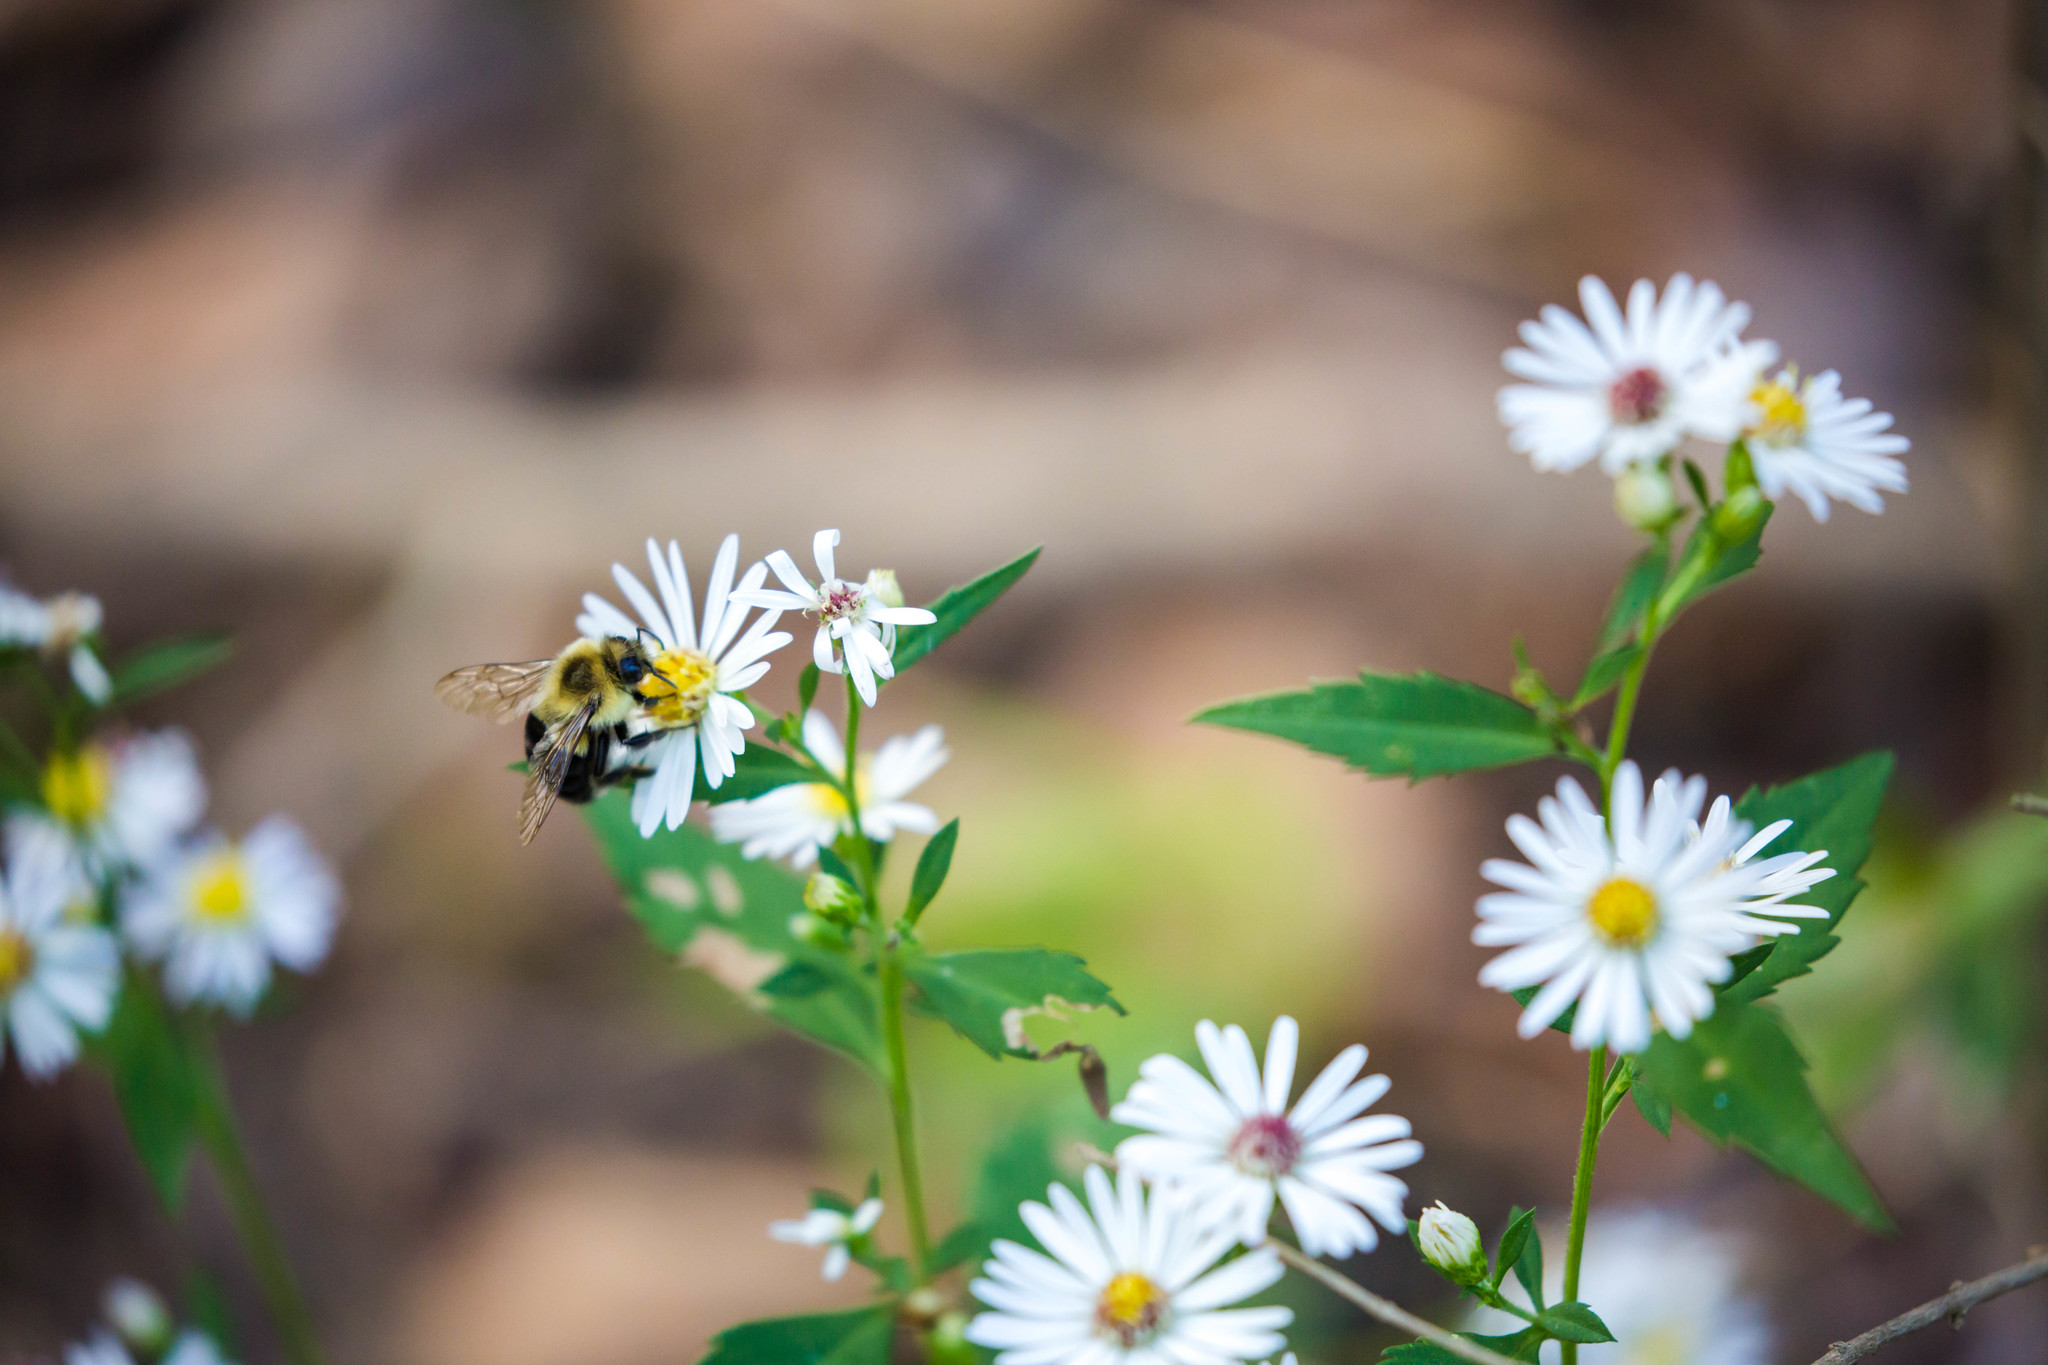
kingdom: Animalia
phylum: Arthropoda
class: Insecta
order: Hymenoptera
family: Apidae
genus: Bombus
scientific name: Bombus impatiens
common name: Common eastern bumble bee
